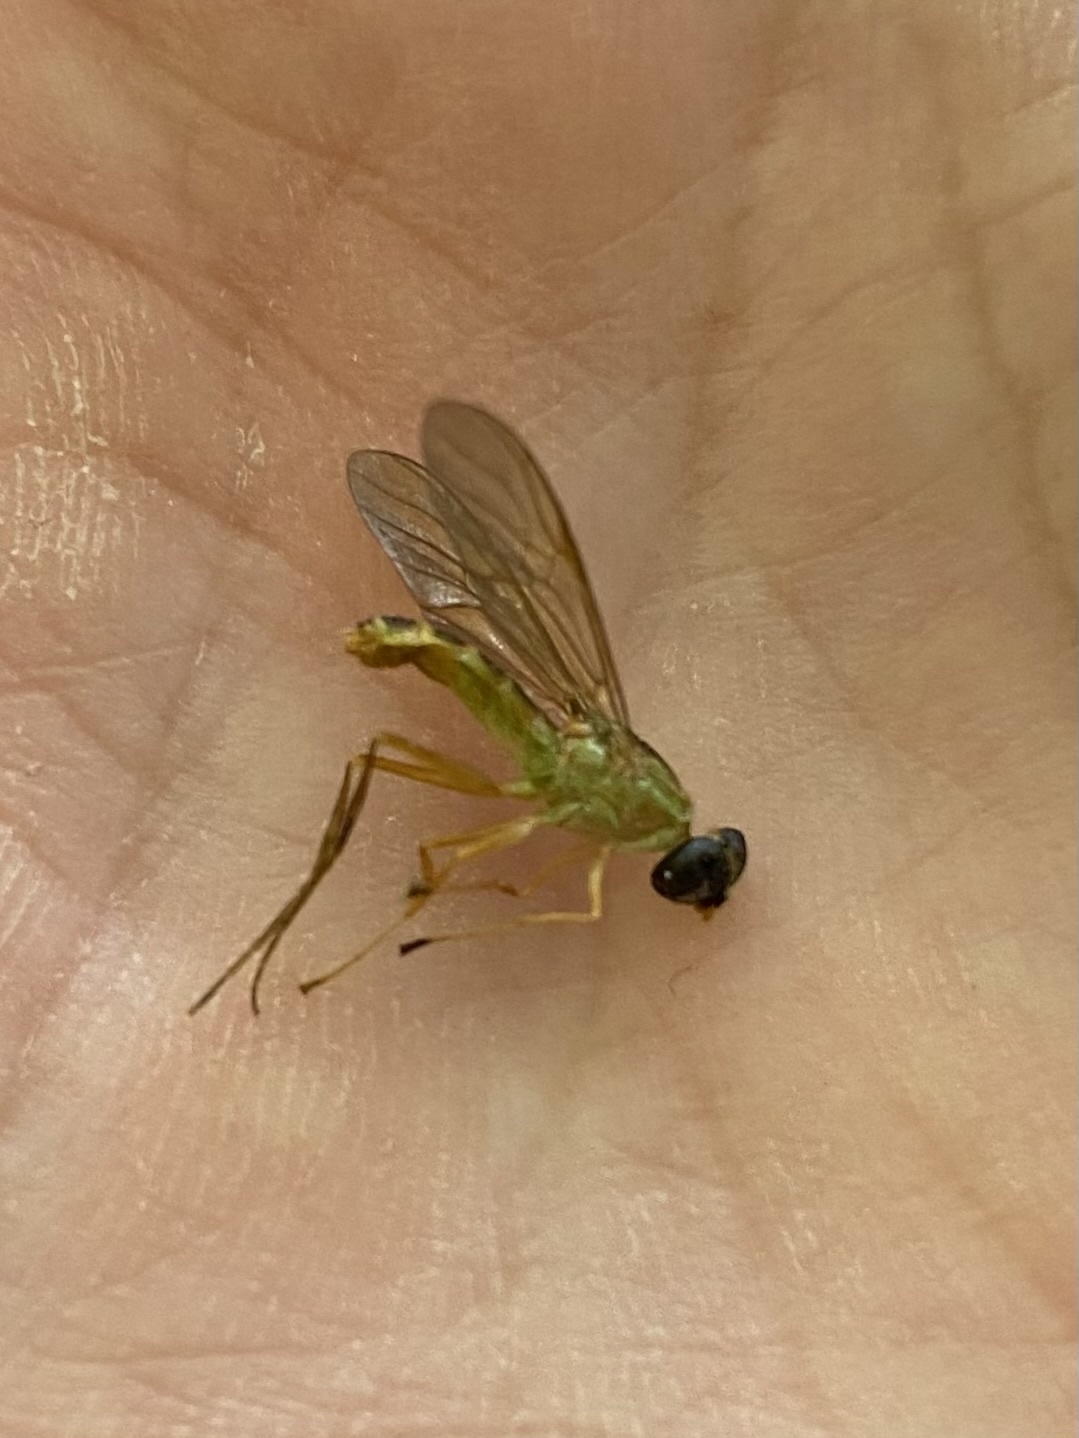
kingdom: Animalia
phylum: Arthropoda
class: Insecta
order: Diptera
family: Stratiomyidae
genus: Ptecticus
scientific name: Ptecticus trivittatus
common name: Compost fly
